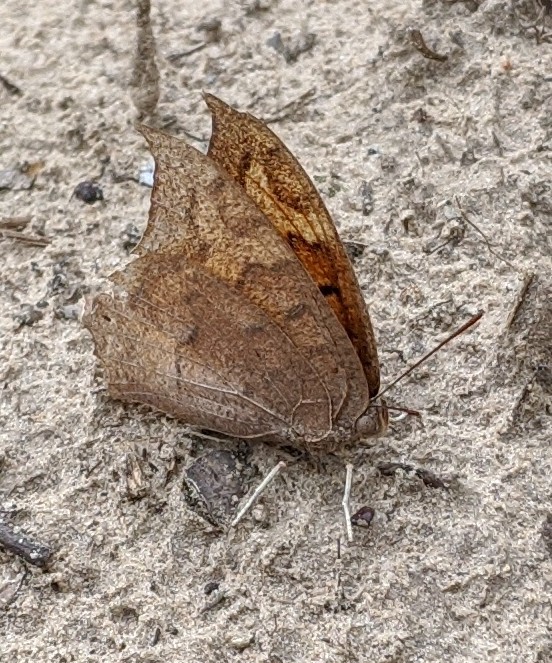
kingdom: Animalia
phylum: Arthropoda
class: Insecta
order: Lepidoptera
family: Nymphalidae
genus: Anaea
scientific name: Anaea andria
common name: Goatweed leafwing
